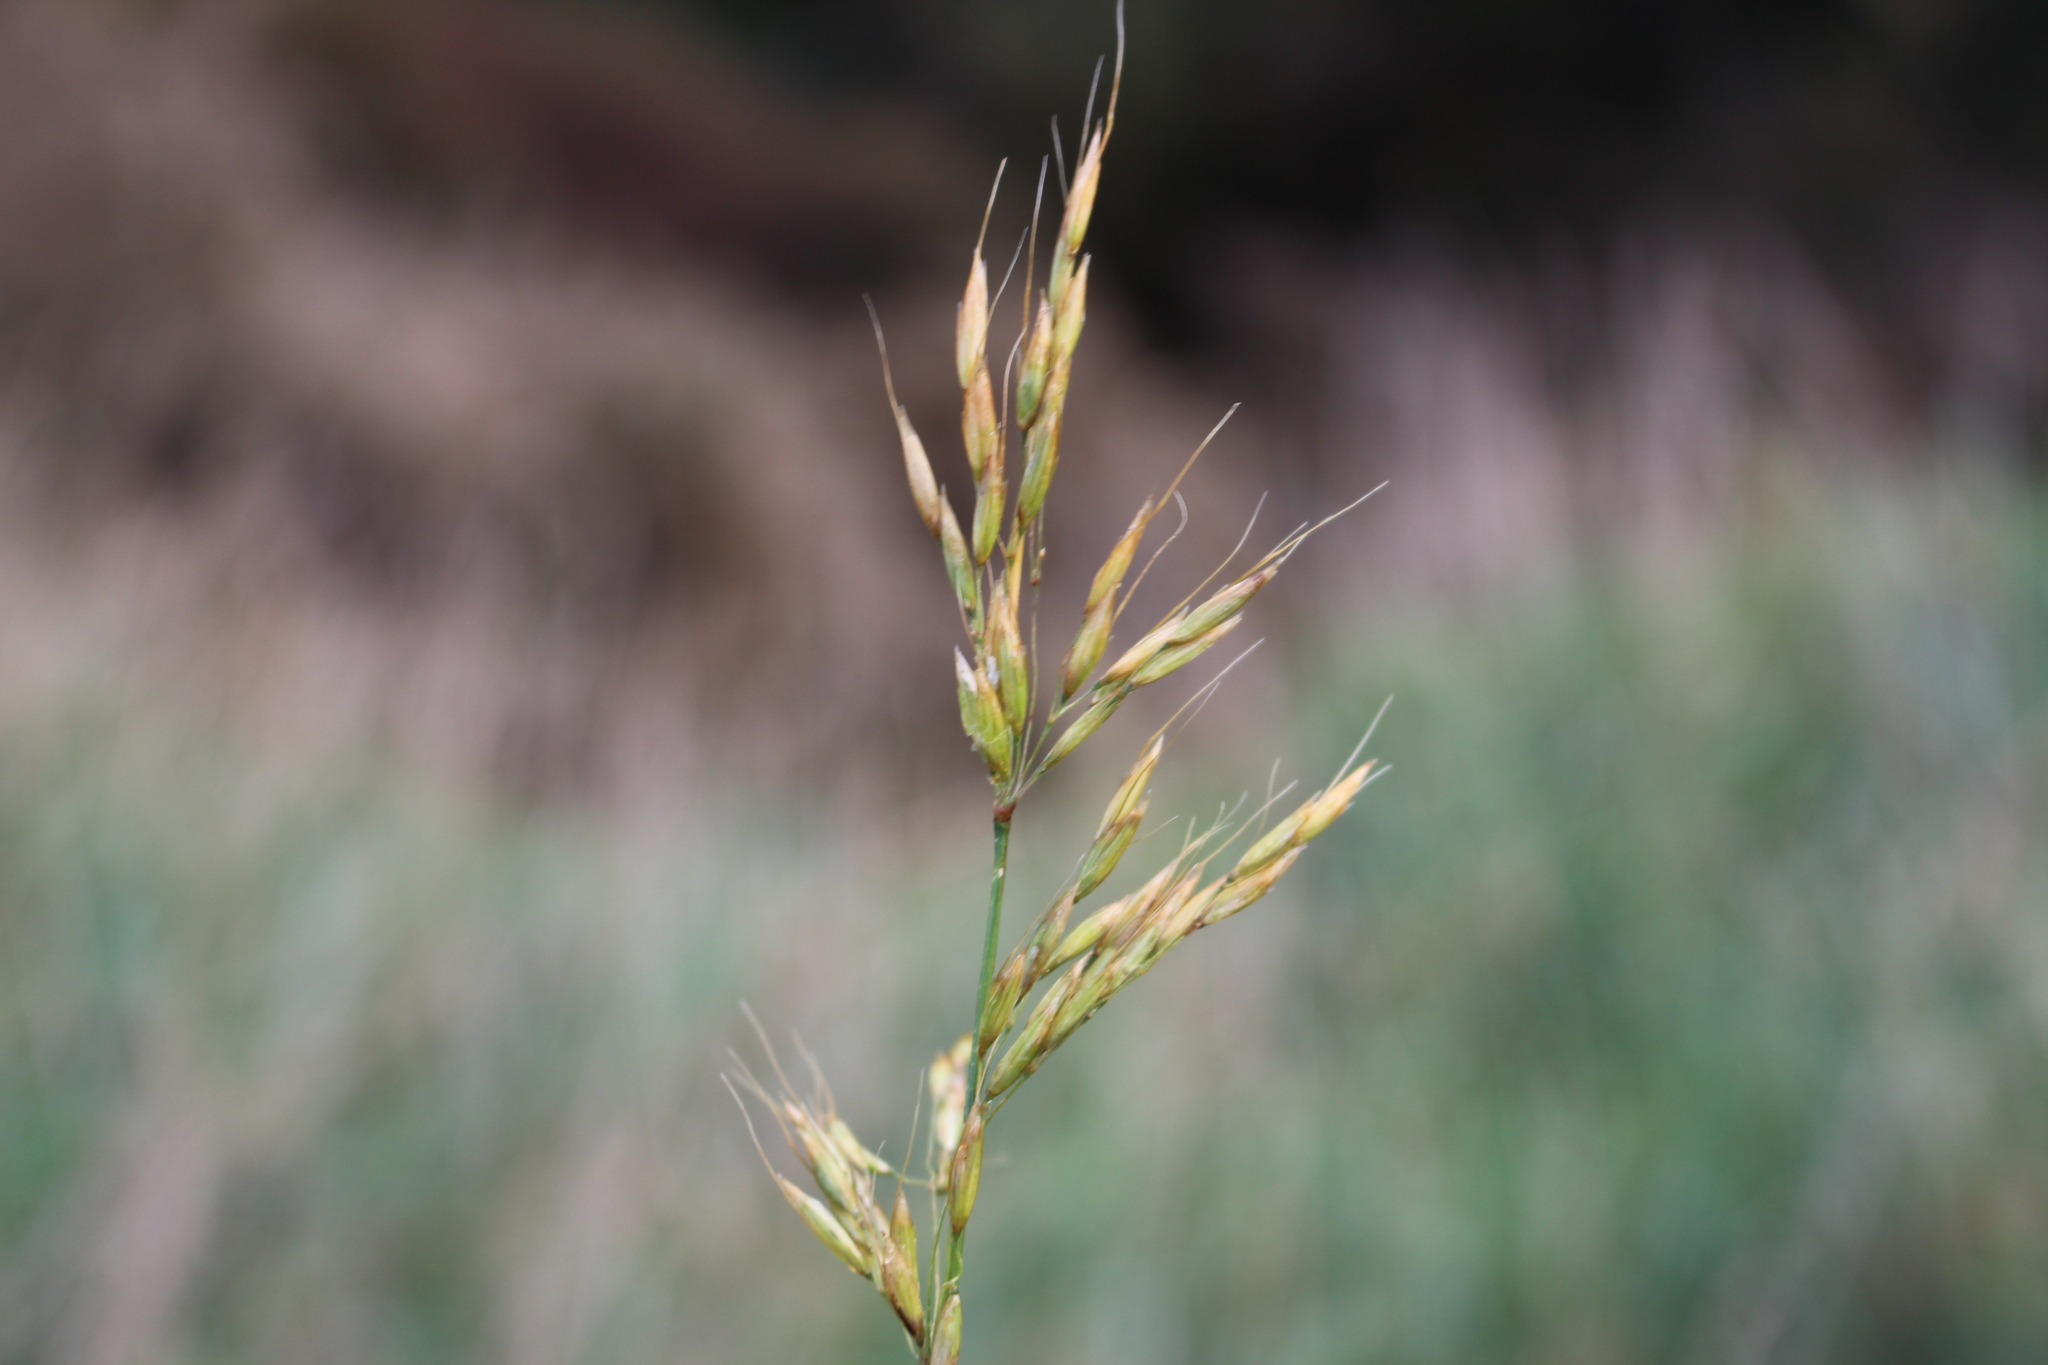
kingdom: Plantae
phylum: Tracheophyta
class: Liliopsida
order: Poales
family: Poaceae
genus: Arrhenatherum
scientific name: Arrhenatherum elatius
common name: Tall oatgrass
